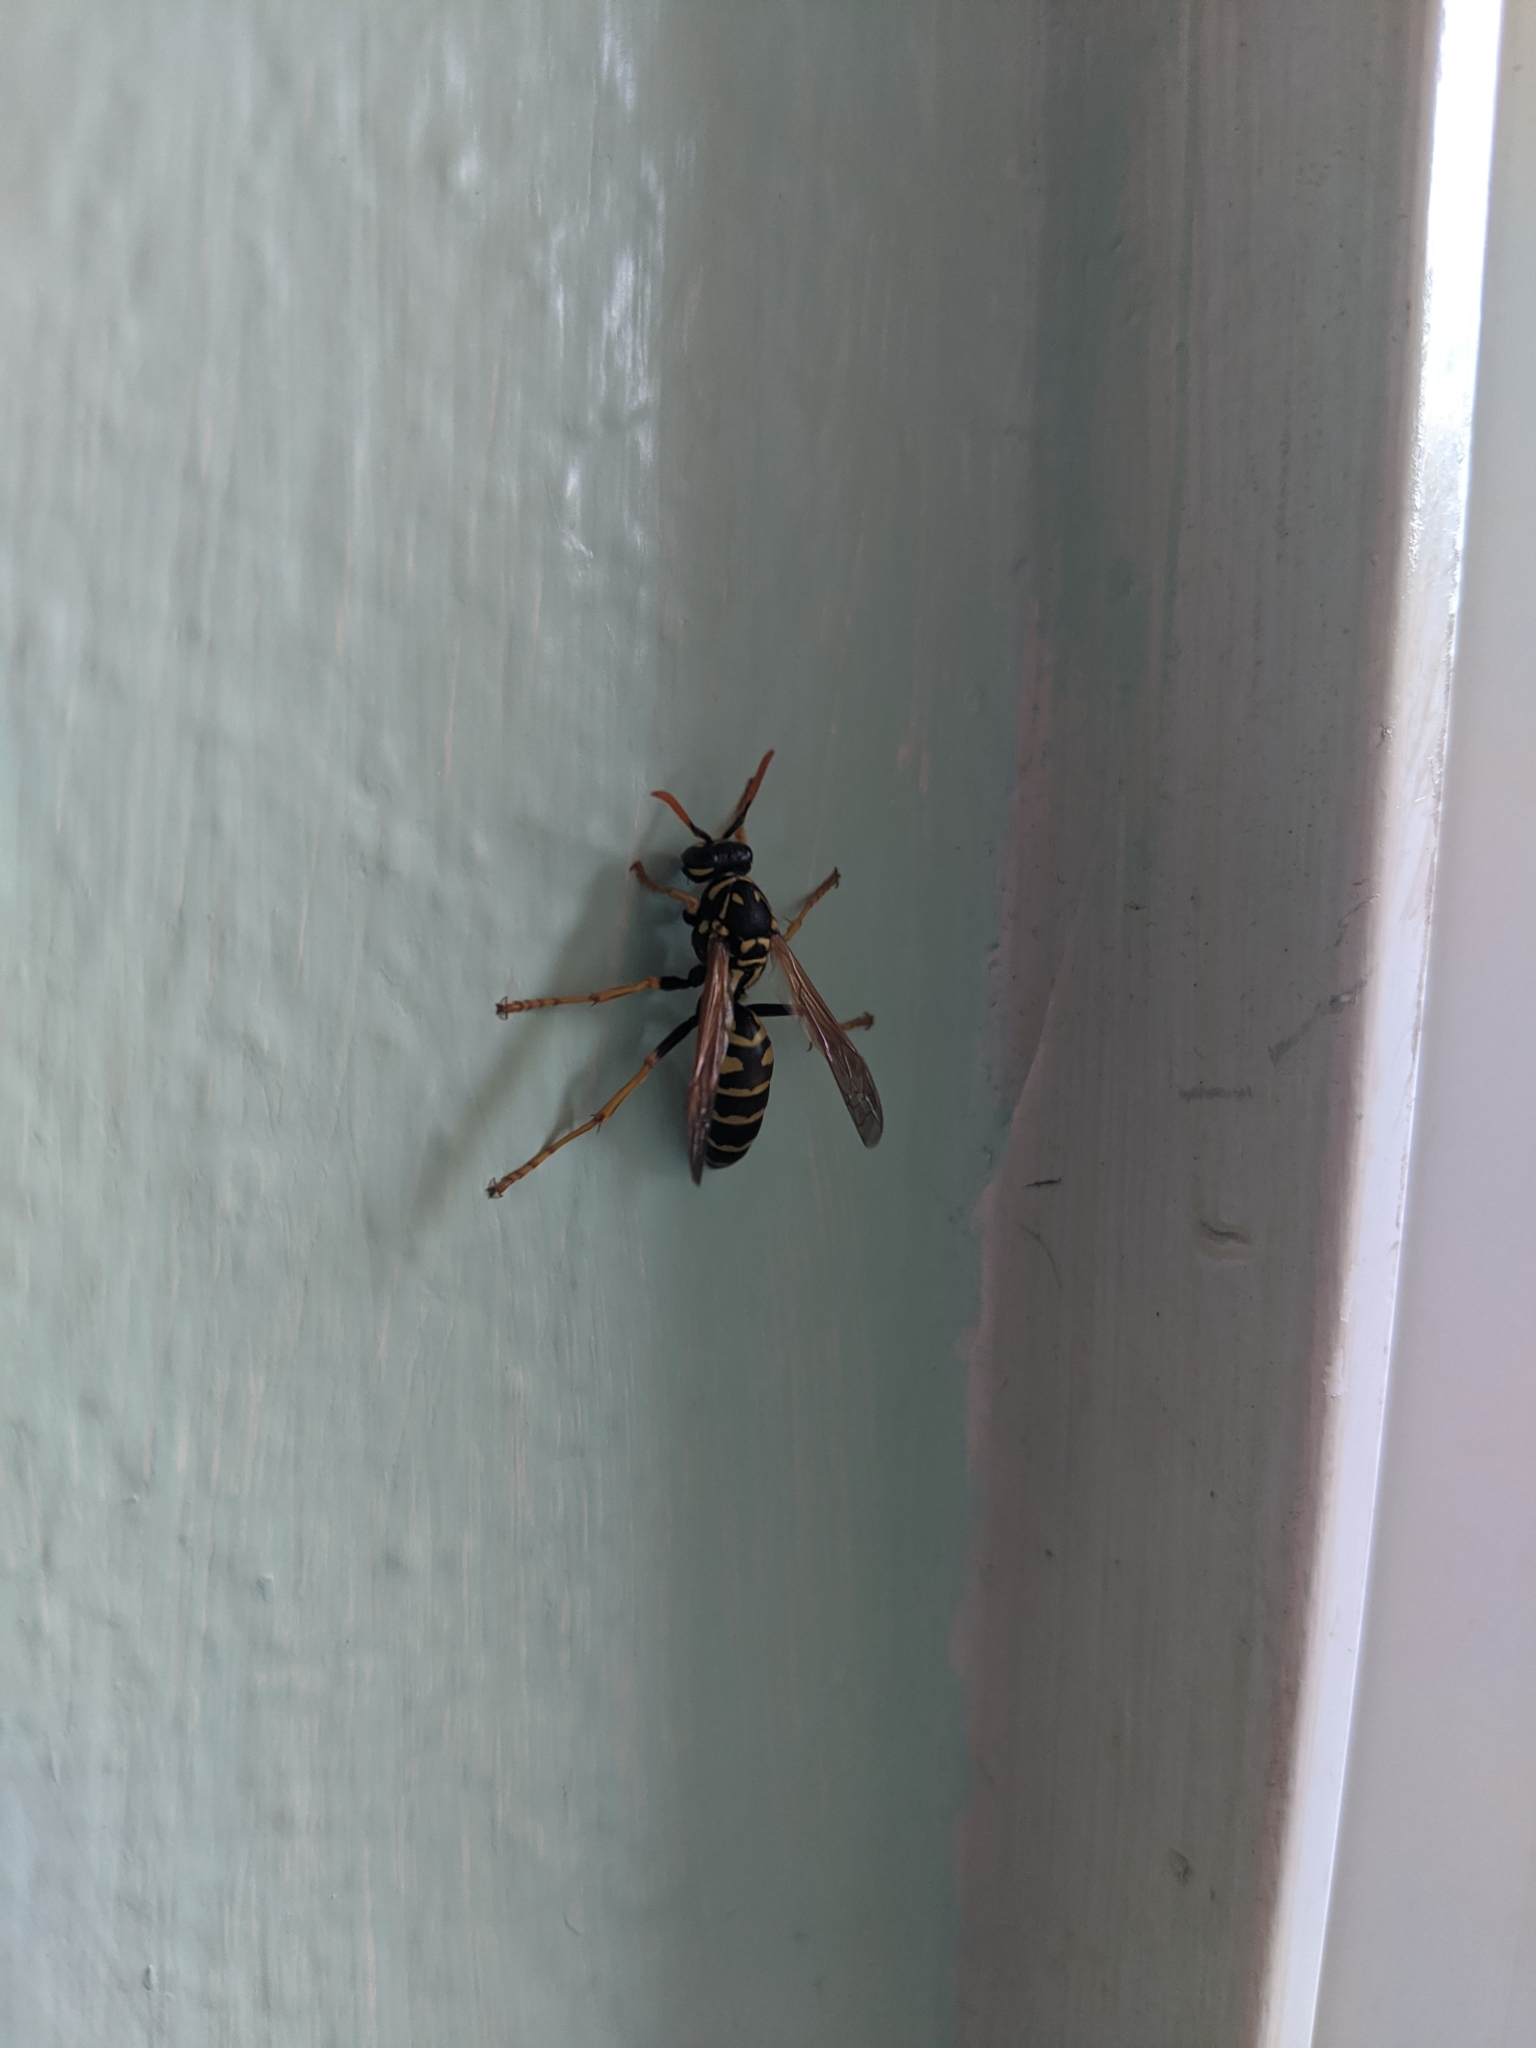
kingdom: Animalia
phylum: Arthropoda
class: Insecta
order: Hymenoptera
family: Eumenidae
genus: Polistes
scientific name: Polistes dominula
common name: Paper wasp
